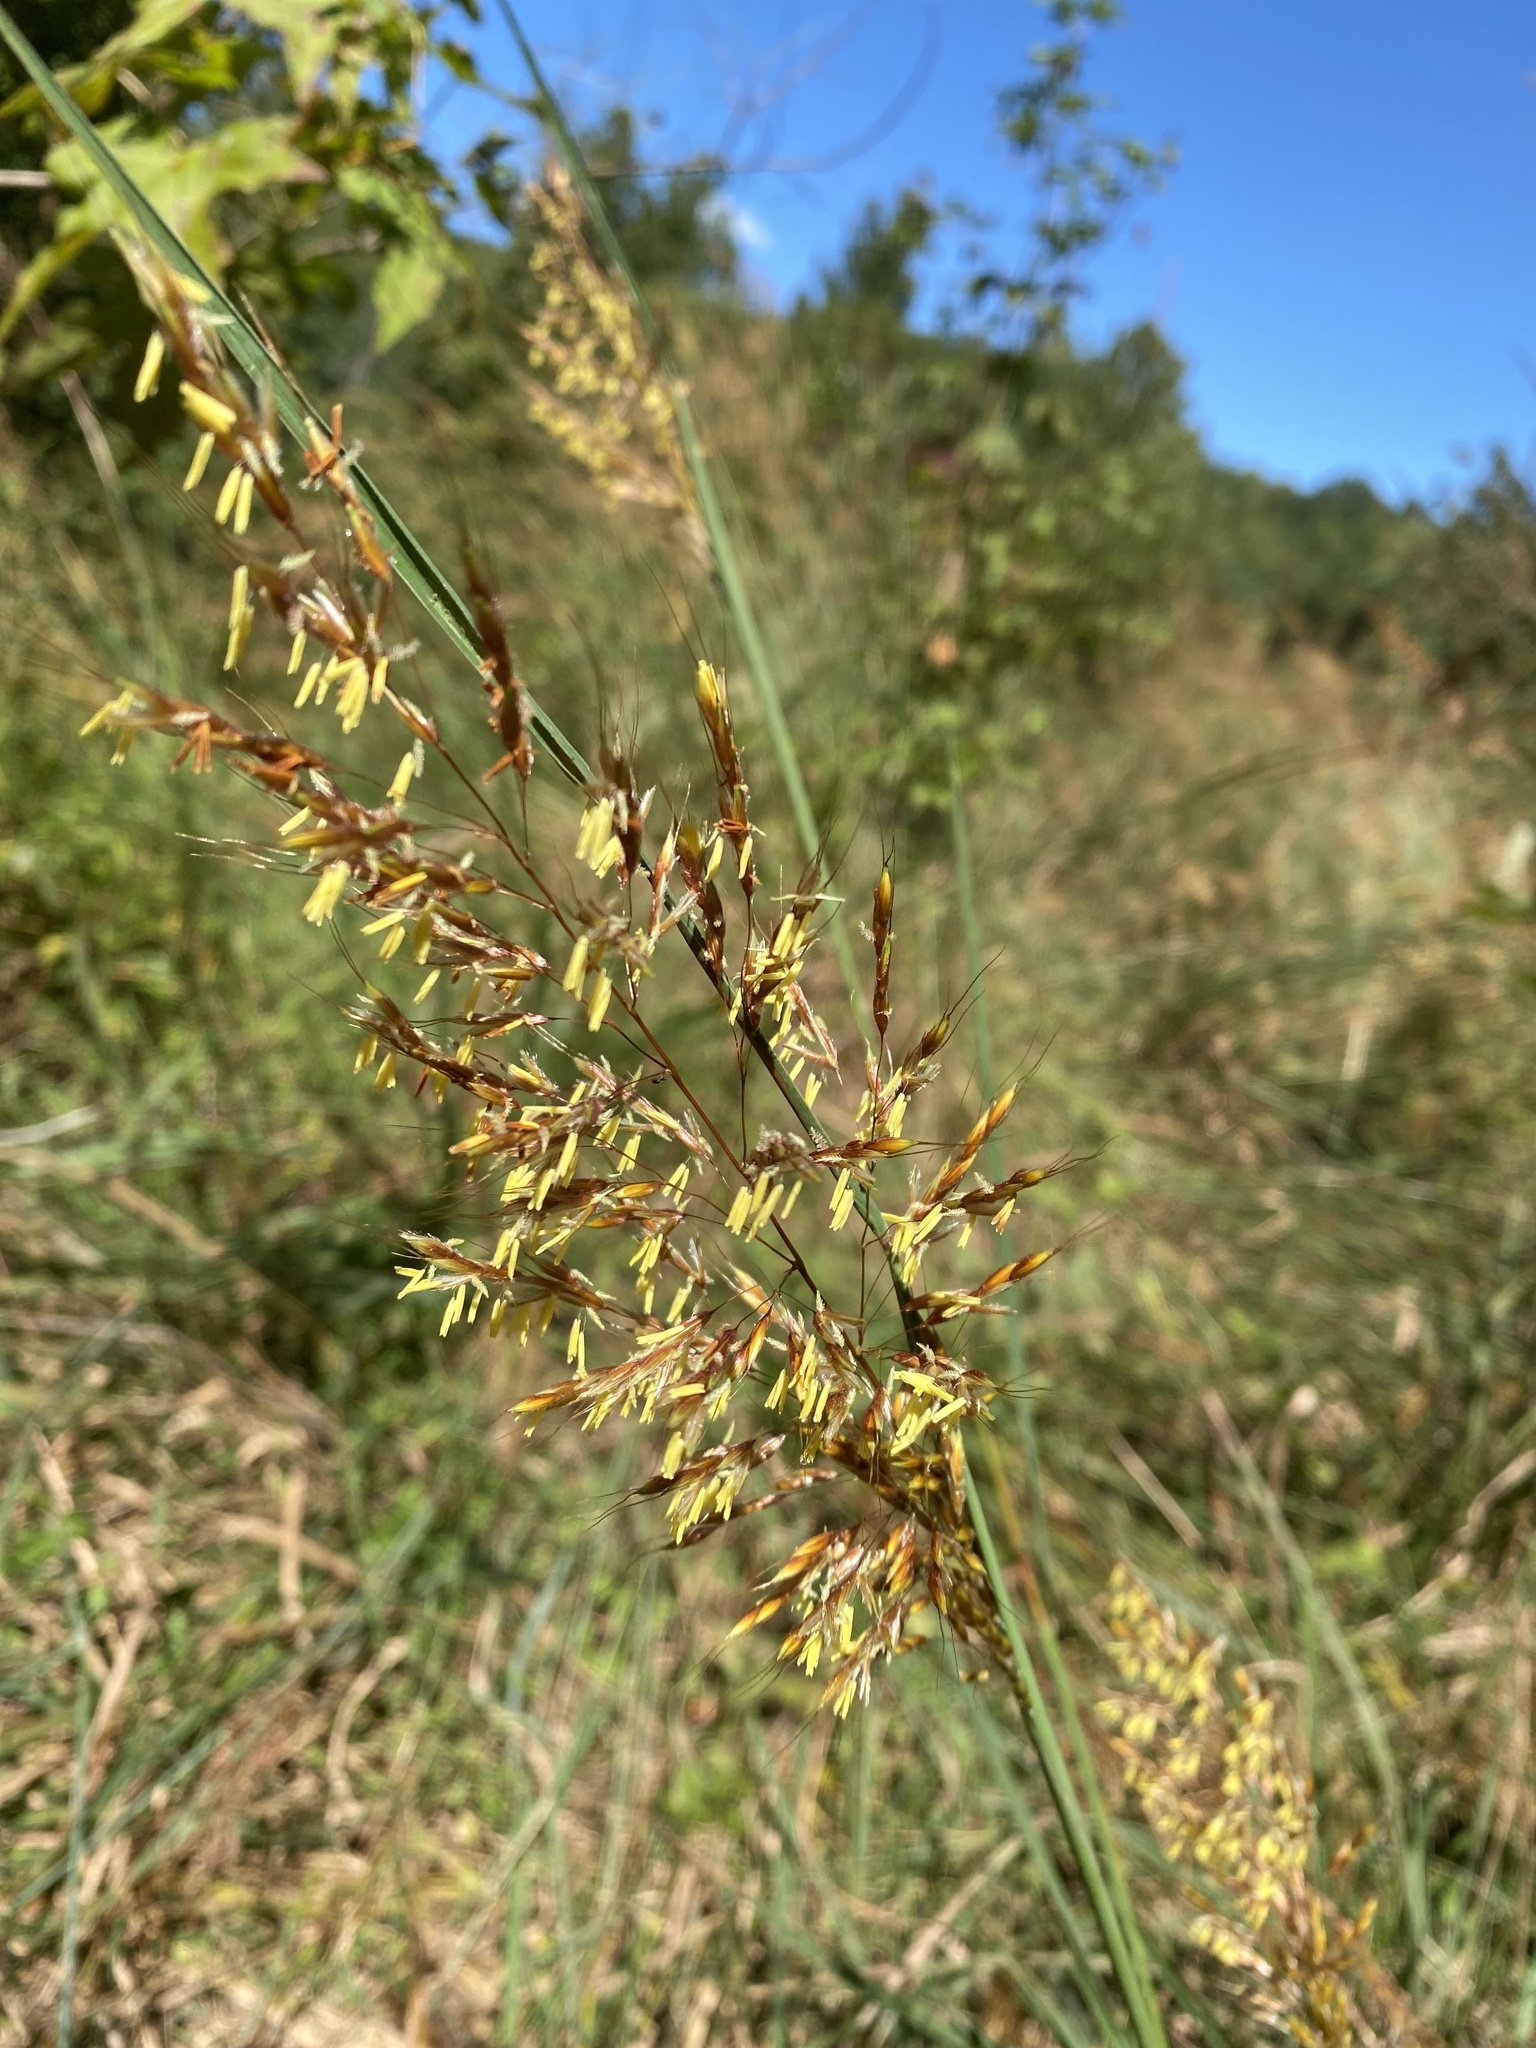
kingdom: Plantae
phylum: Tracheophyta
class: Liliopsida
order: Poales
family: Poaceae
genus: Sorghastrum
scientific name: Sorghastrum nutans
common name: Indian grass
